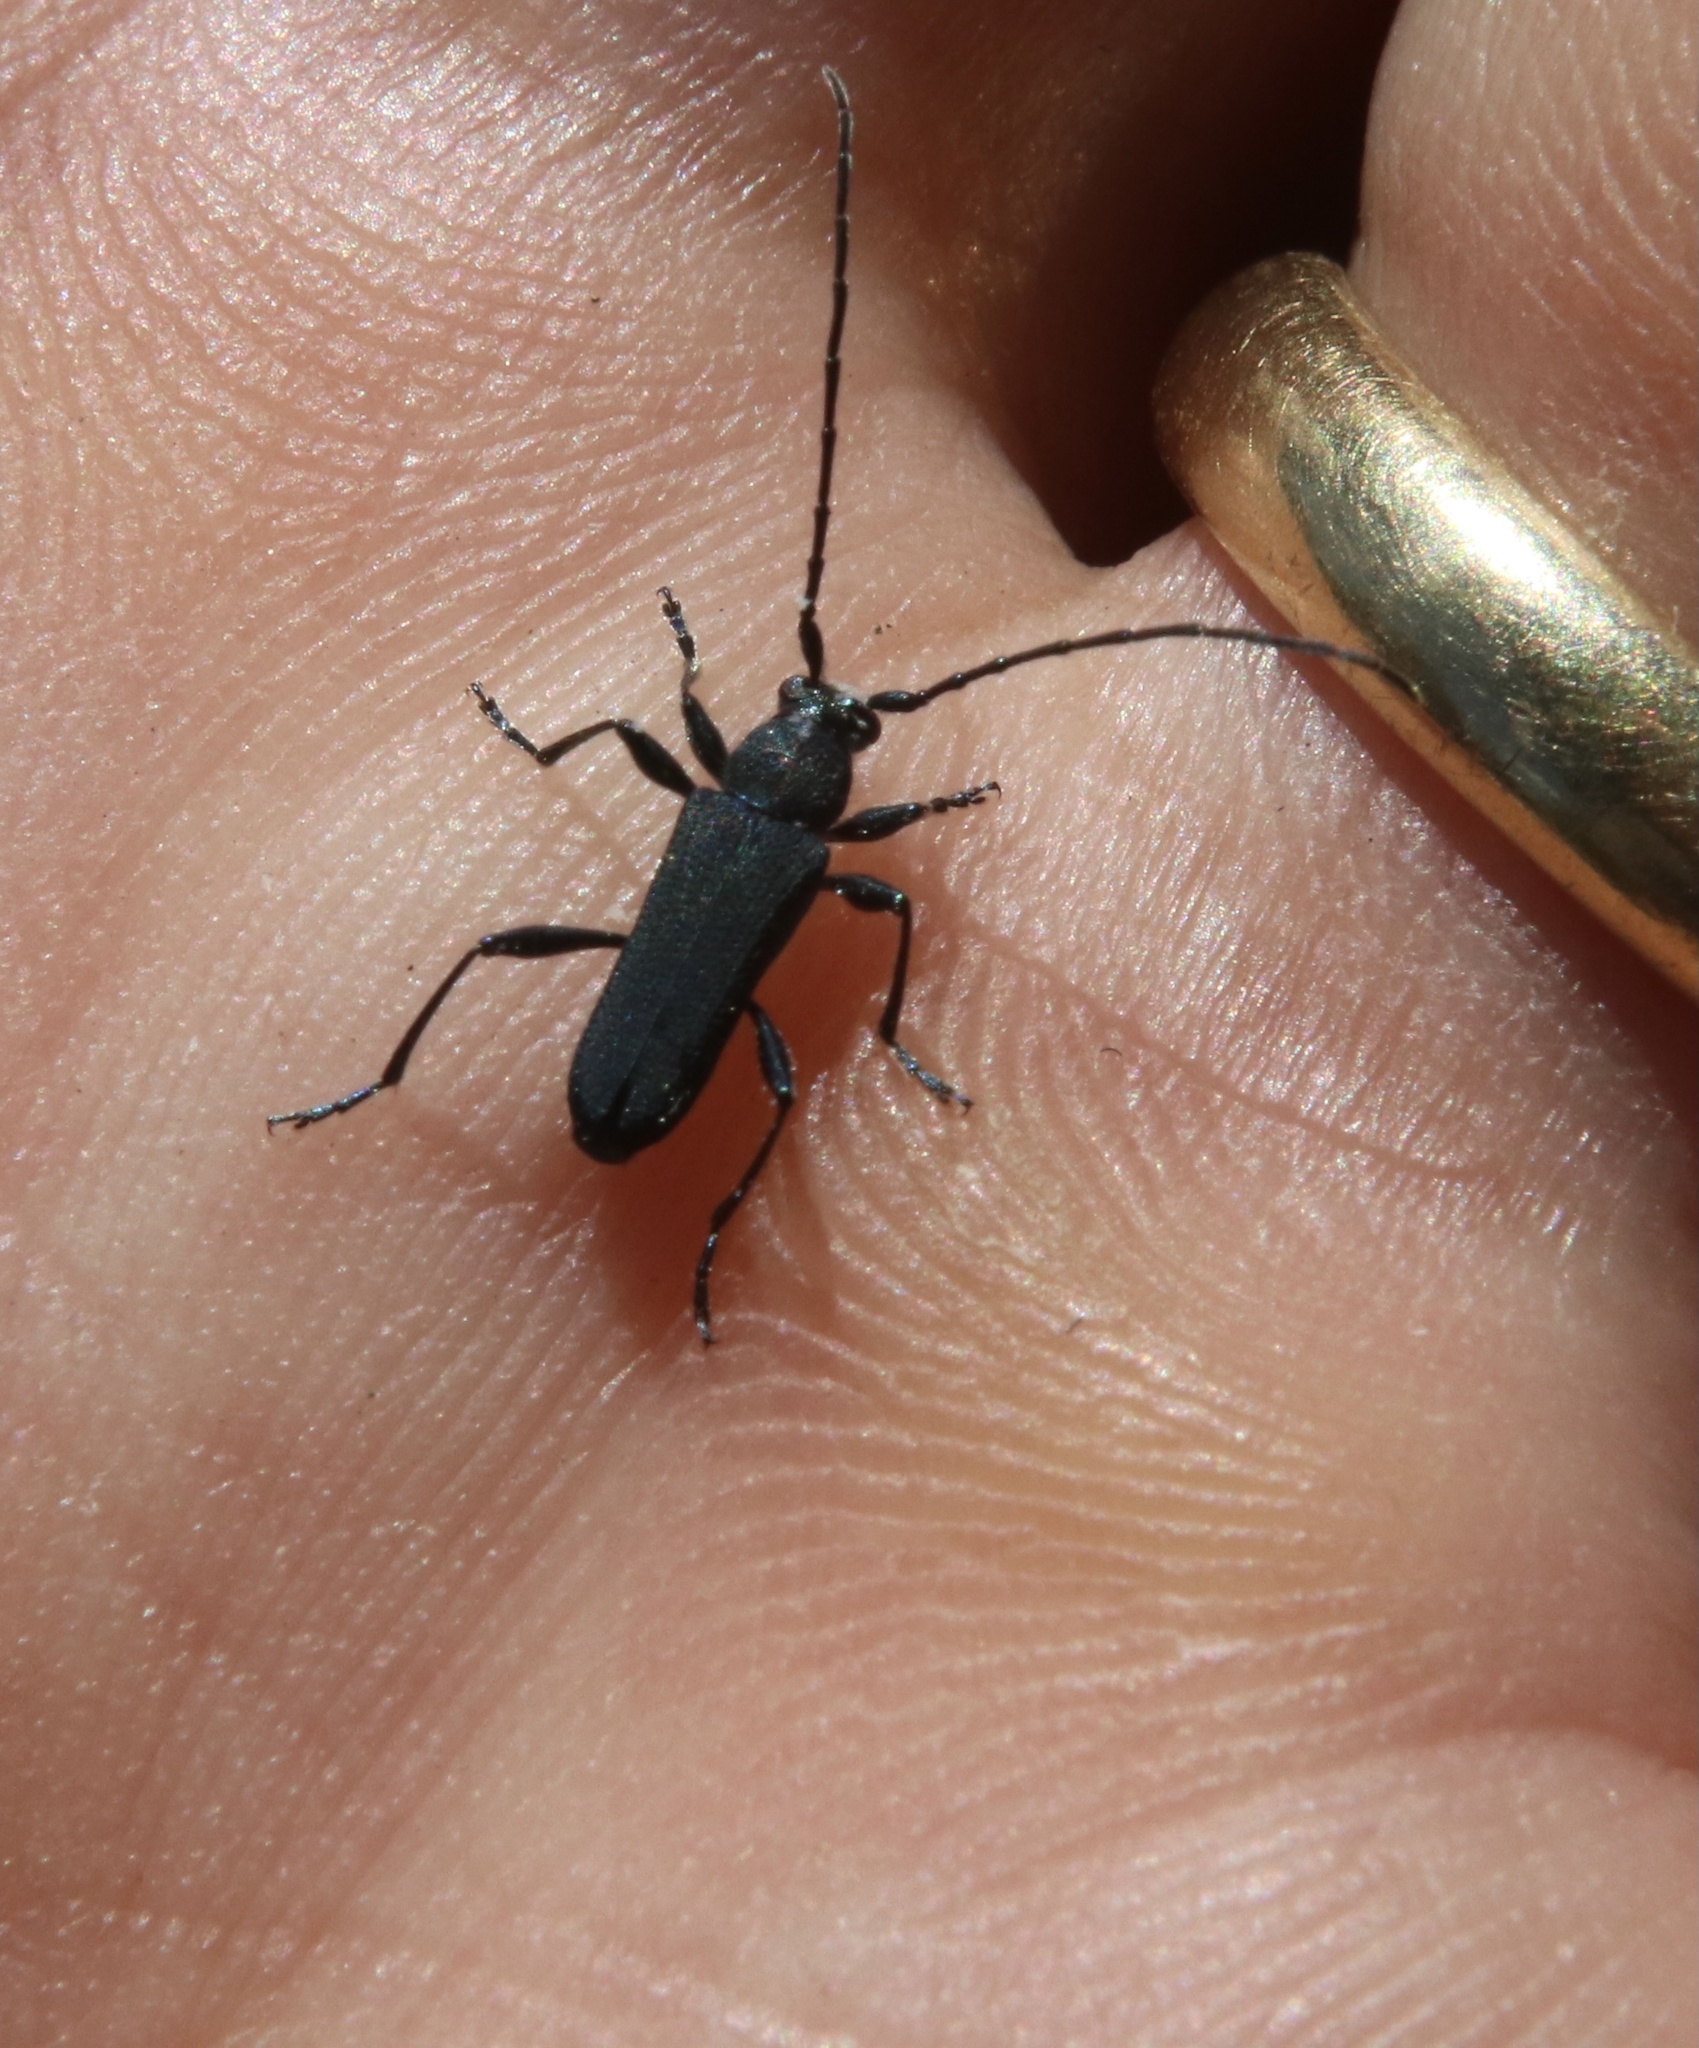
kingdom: Animalia
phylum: Arthropoda
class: Insecta
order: Coleoptera
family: Cerambycidae
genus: Eryphus
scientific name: Eryphus laetus
